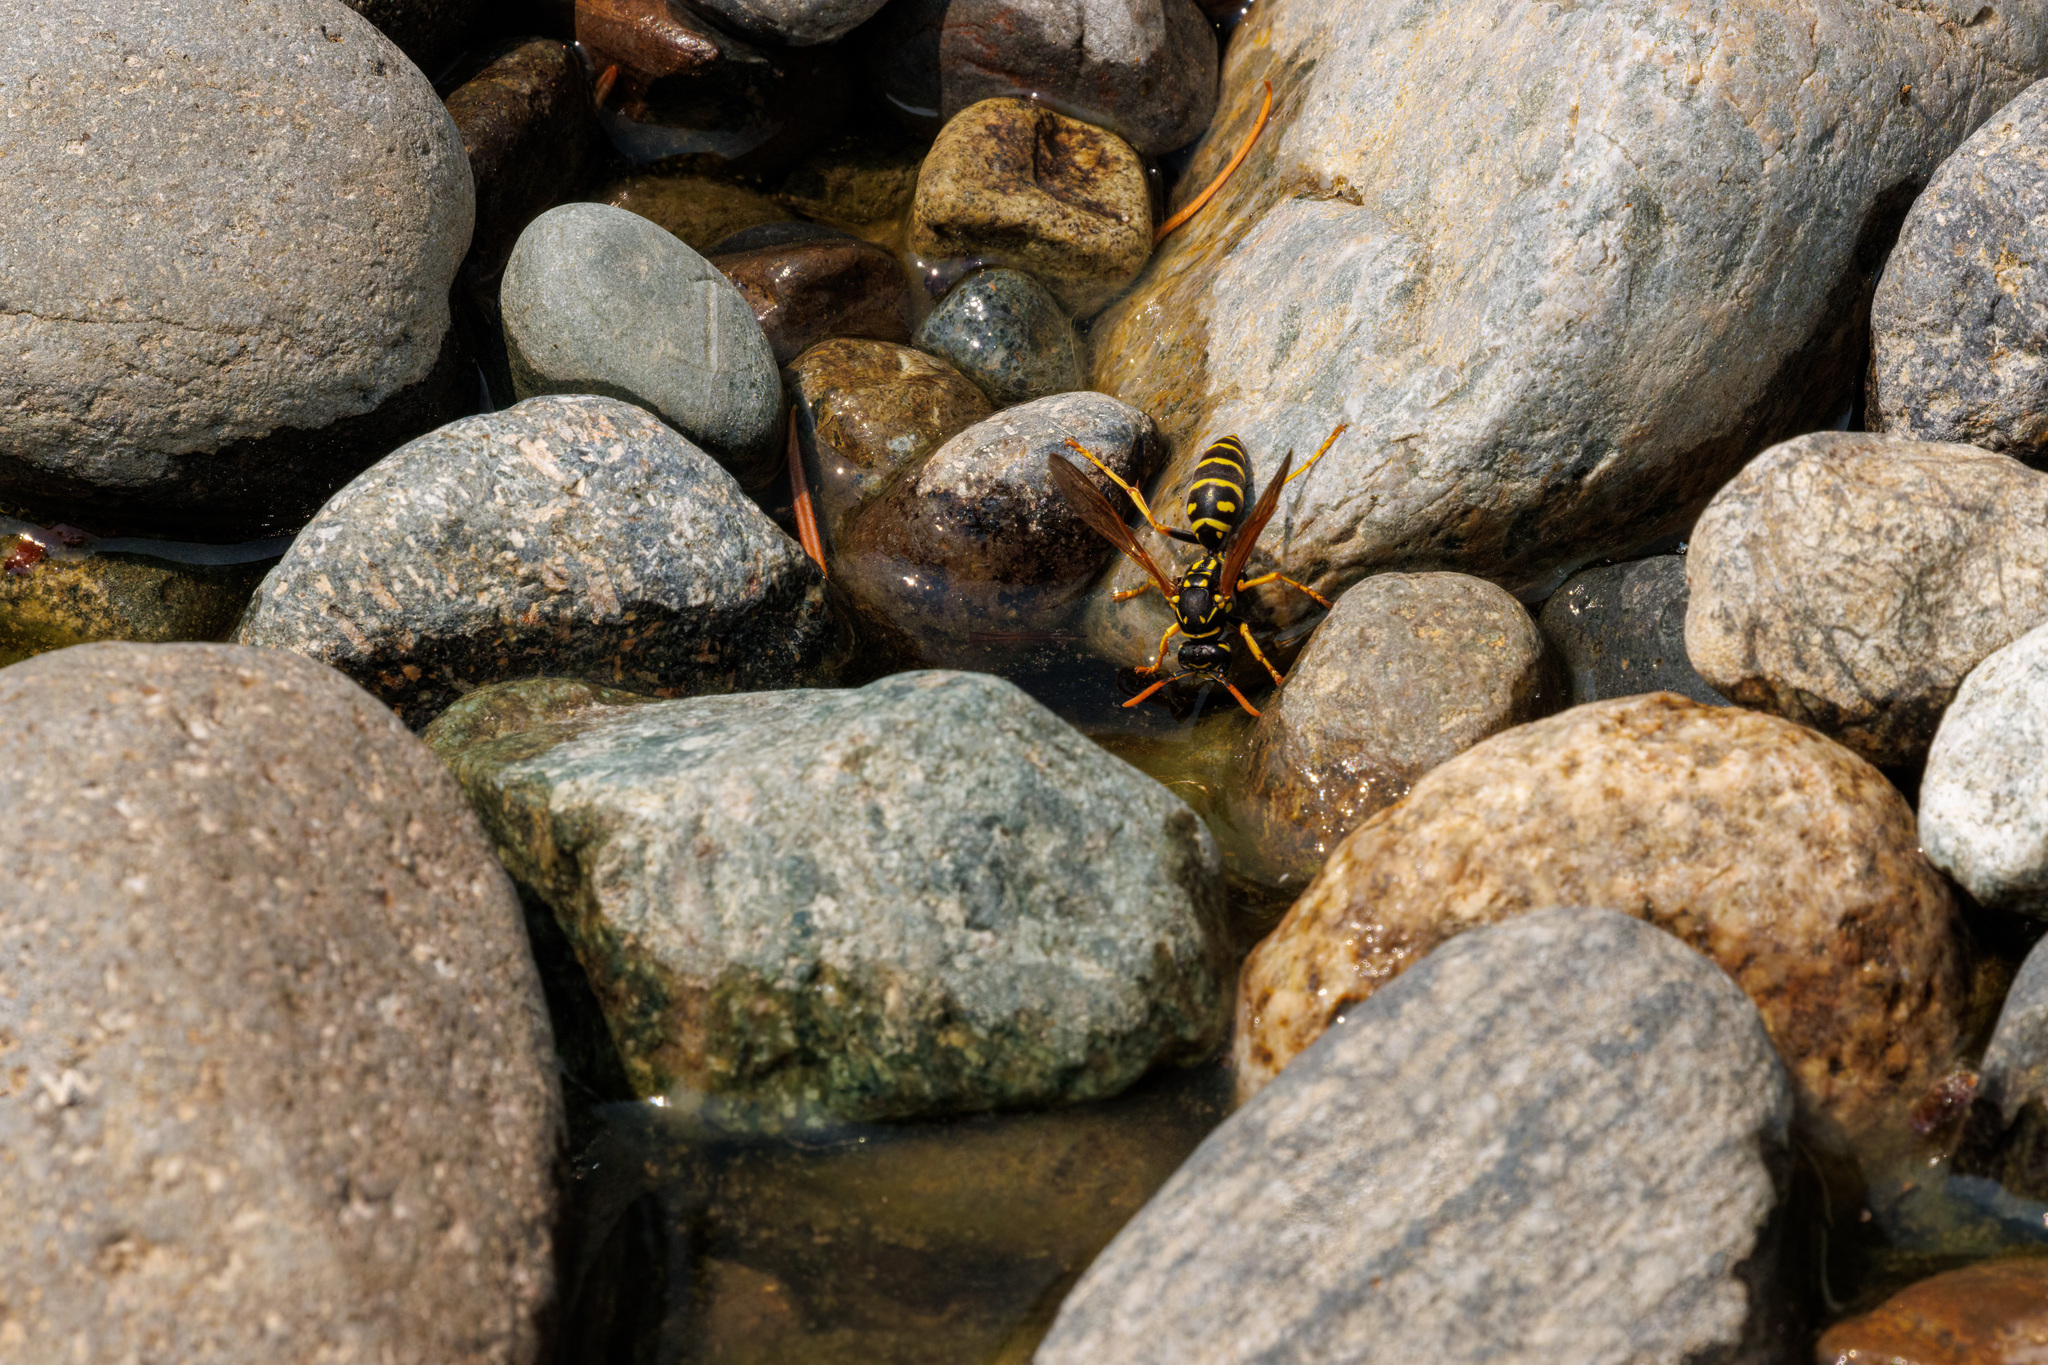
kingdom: Animalia
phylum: Arthropoda
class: Insecta
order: Hymenoptera
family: Eumenidae
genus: Polistes
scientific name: Polistes dominula
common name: Paper wasp
